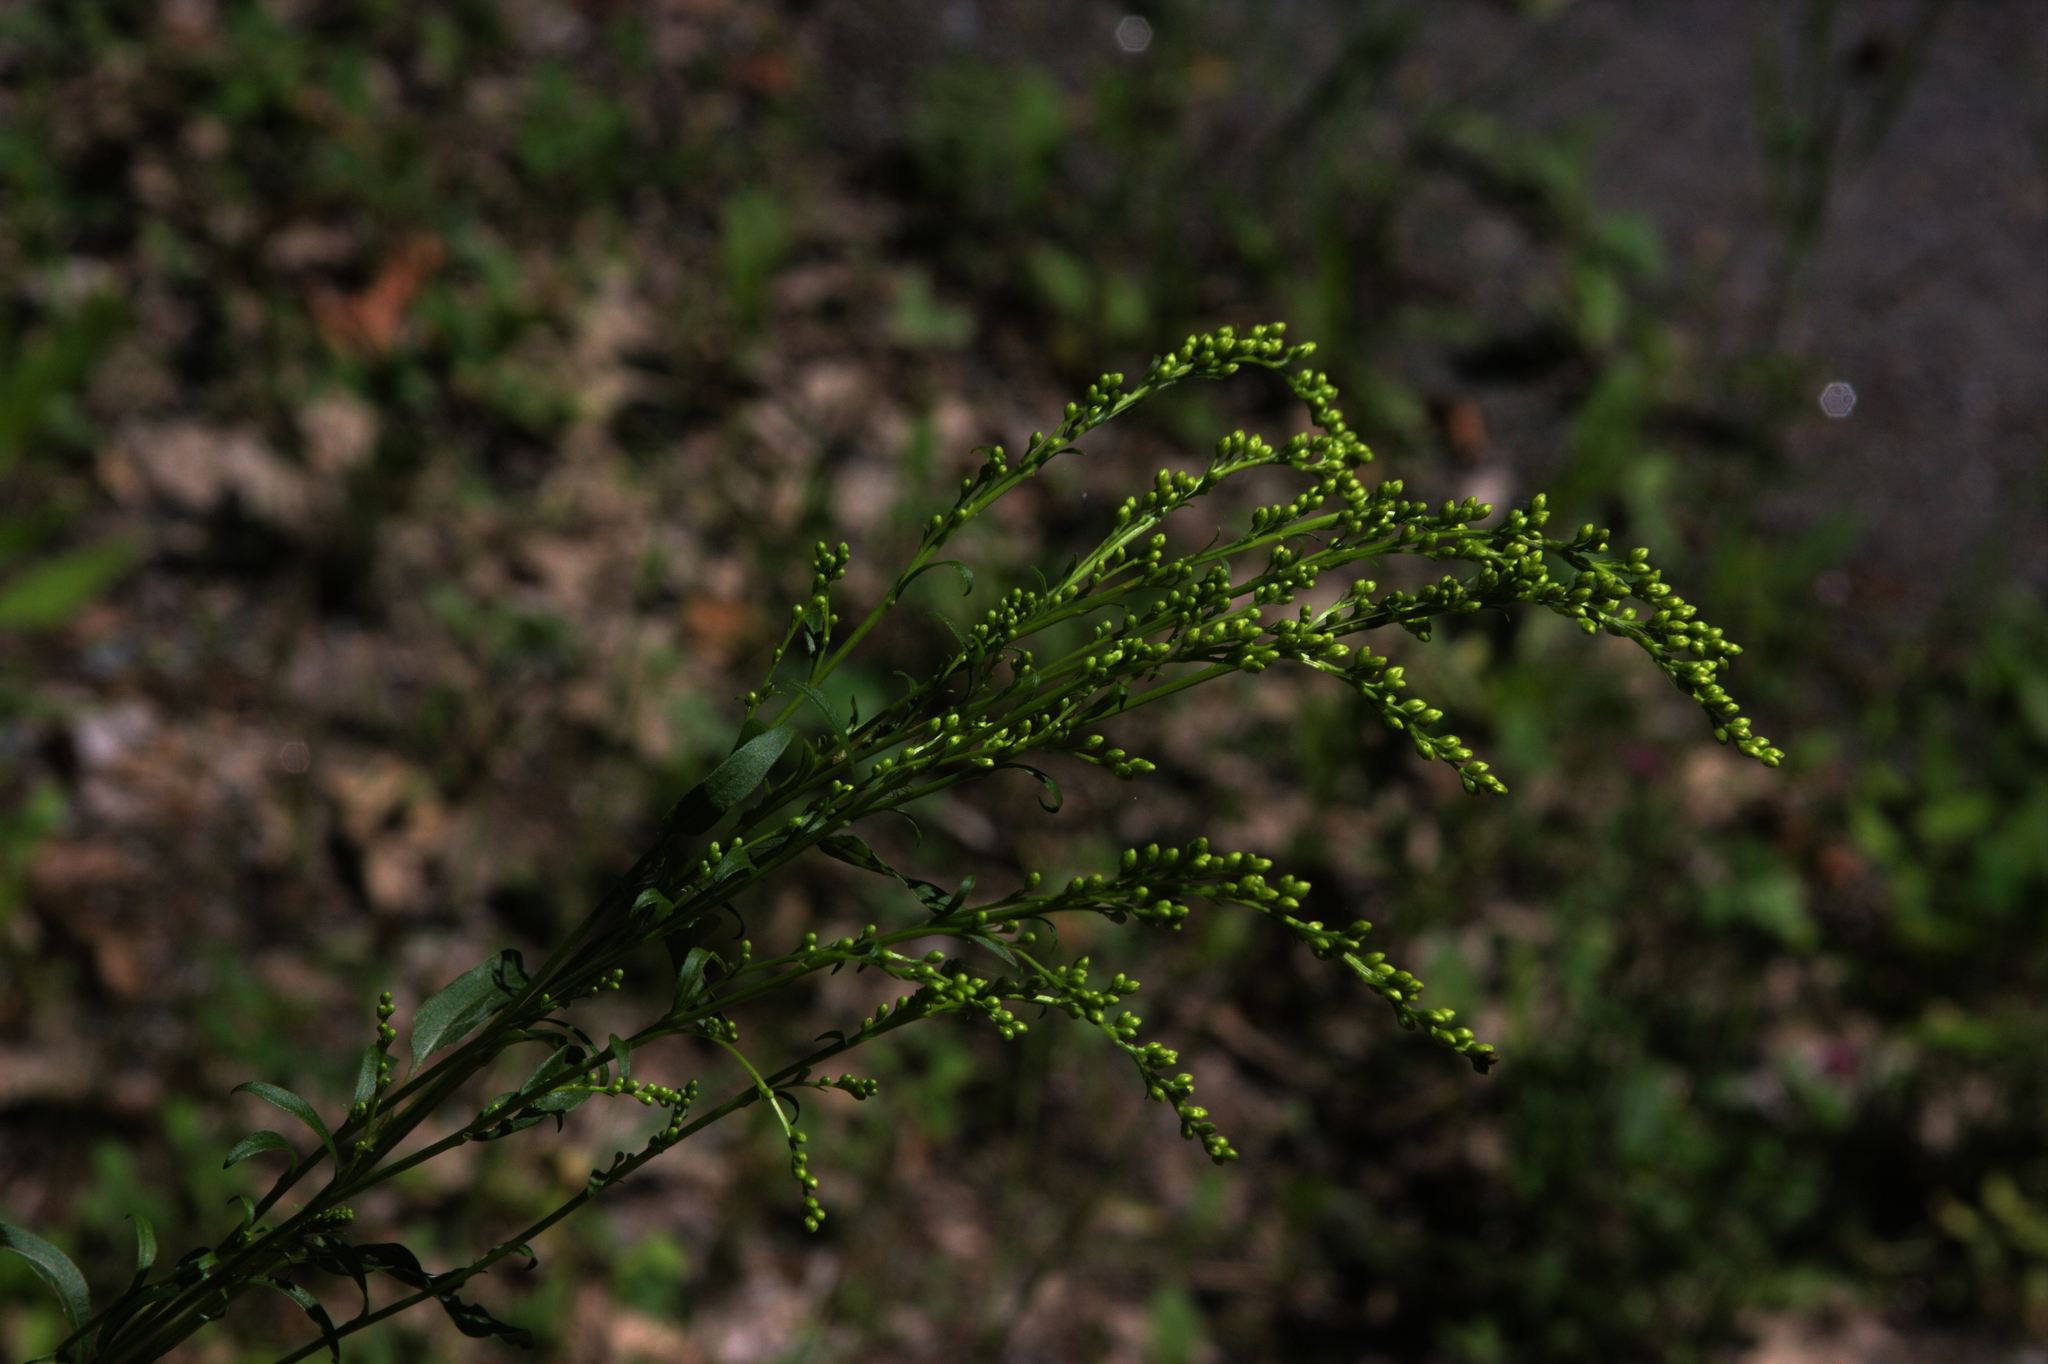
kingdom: Plantae
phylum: Tracheophyta
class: Magnoliopsida
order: Asterales
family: Asteraceae
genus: Solidago
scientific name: Solidago juncea
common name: Early goldenrod
